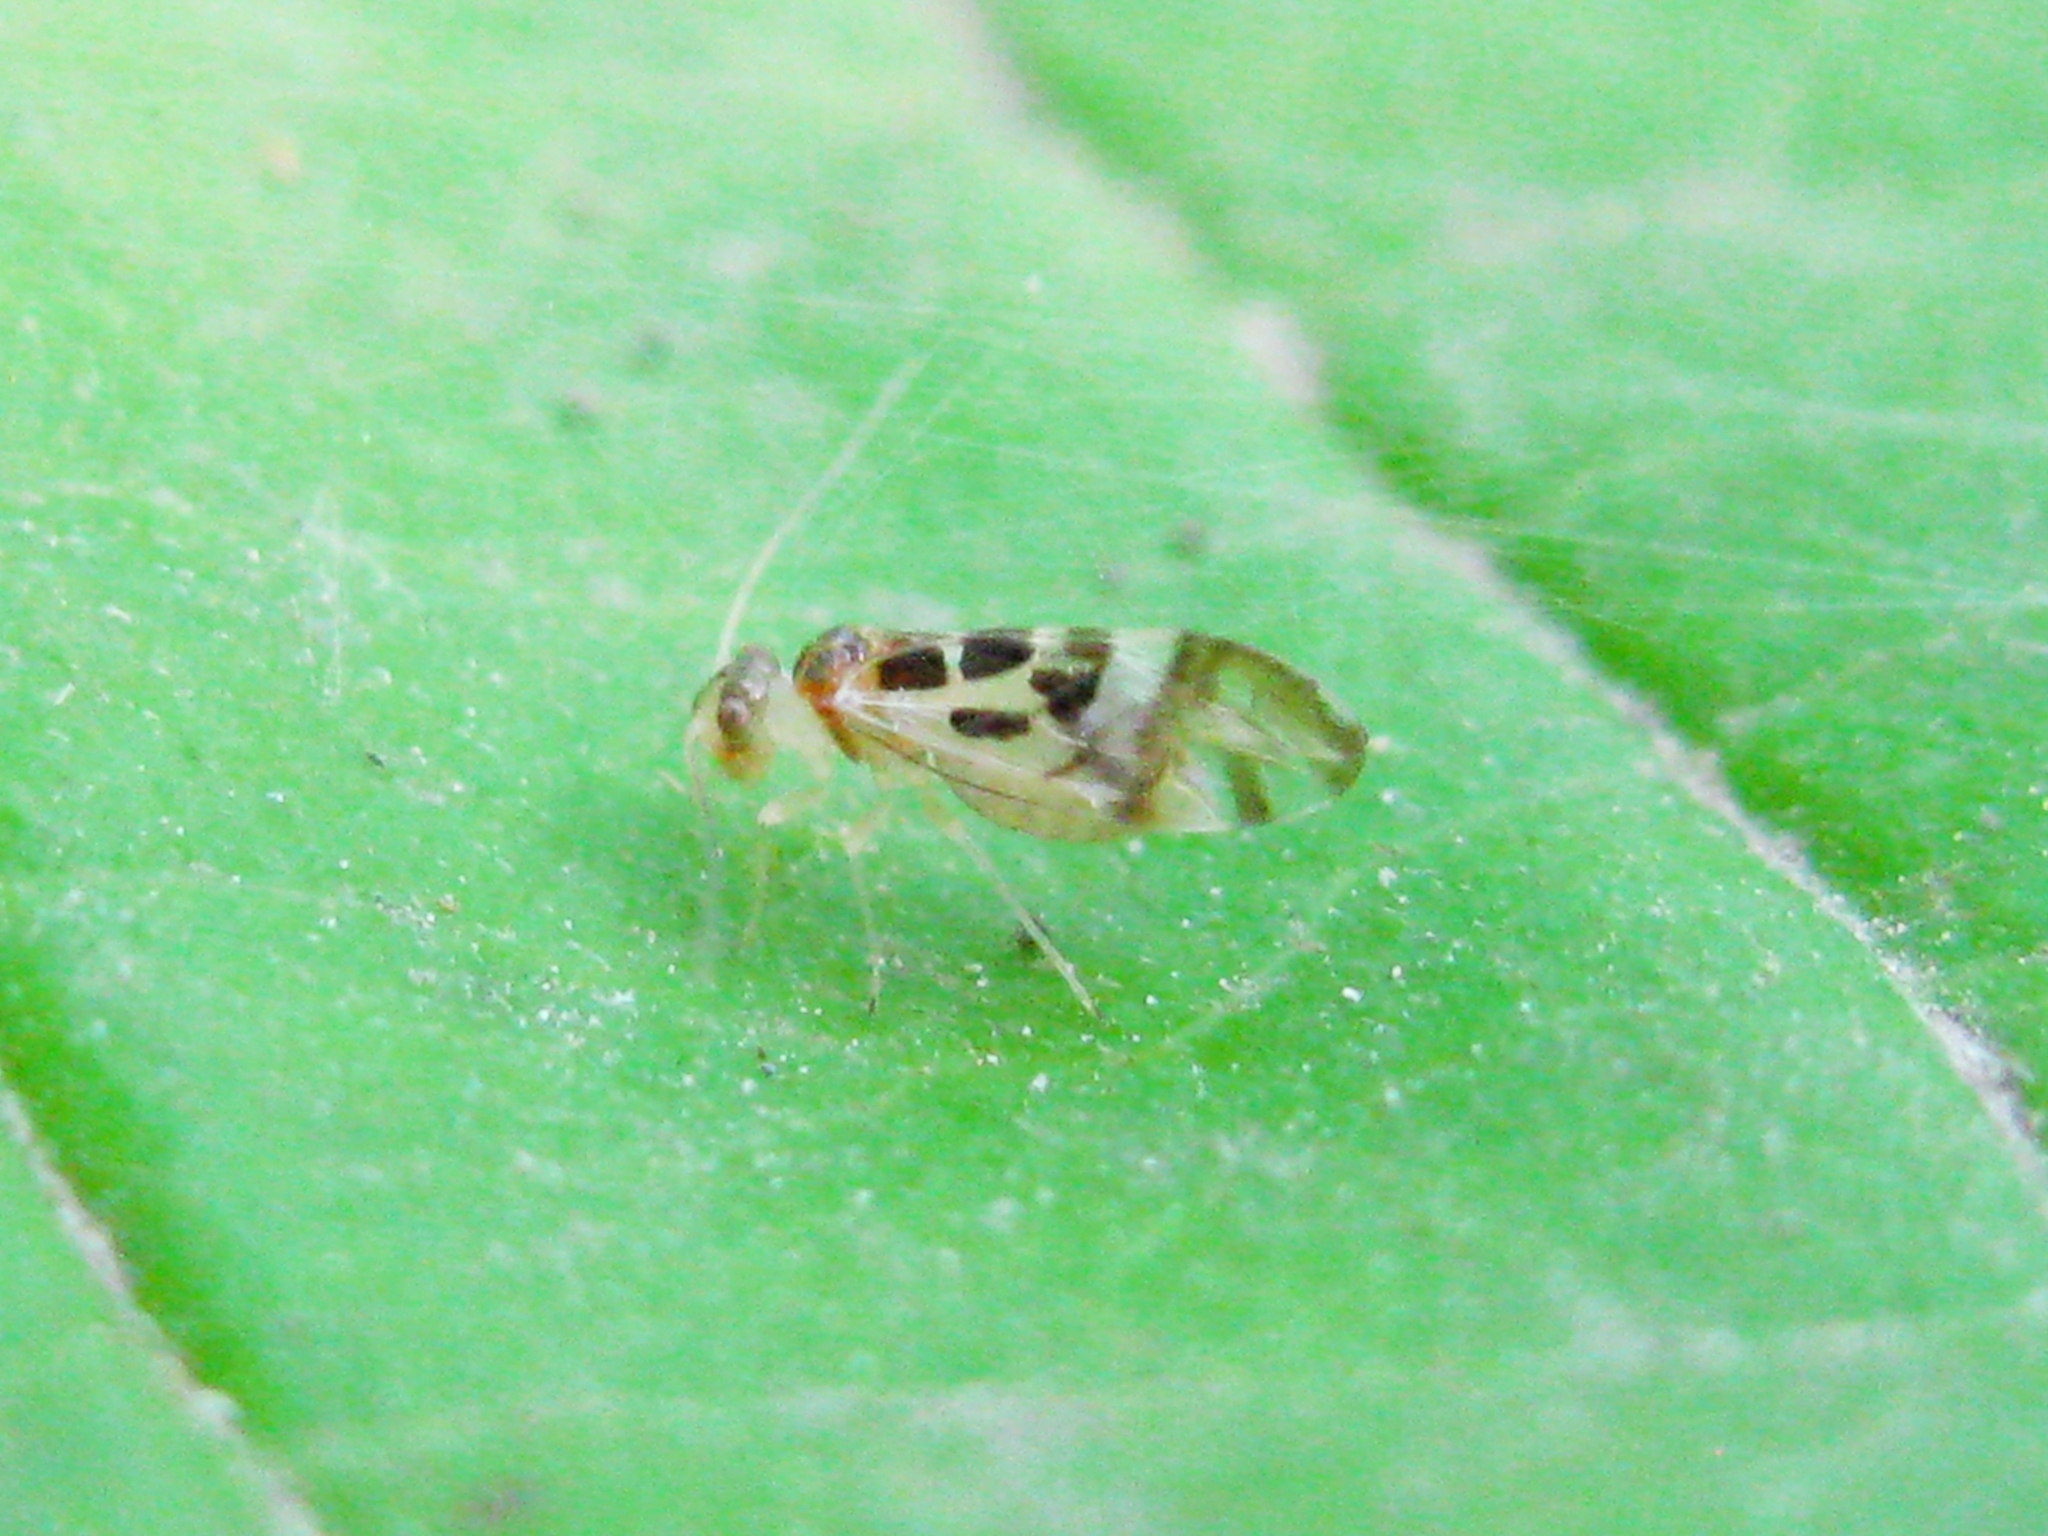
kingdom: Animalia
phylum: Arthropoda
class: Insecta
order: Psocodea
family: Stenopsocidae
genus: Graphopsocus
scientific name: Graphopsocus cruciatus
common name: Lizard bark louse
